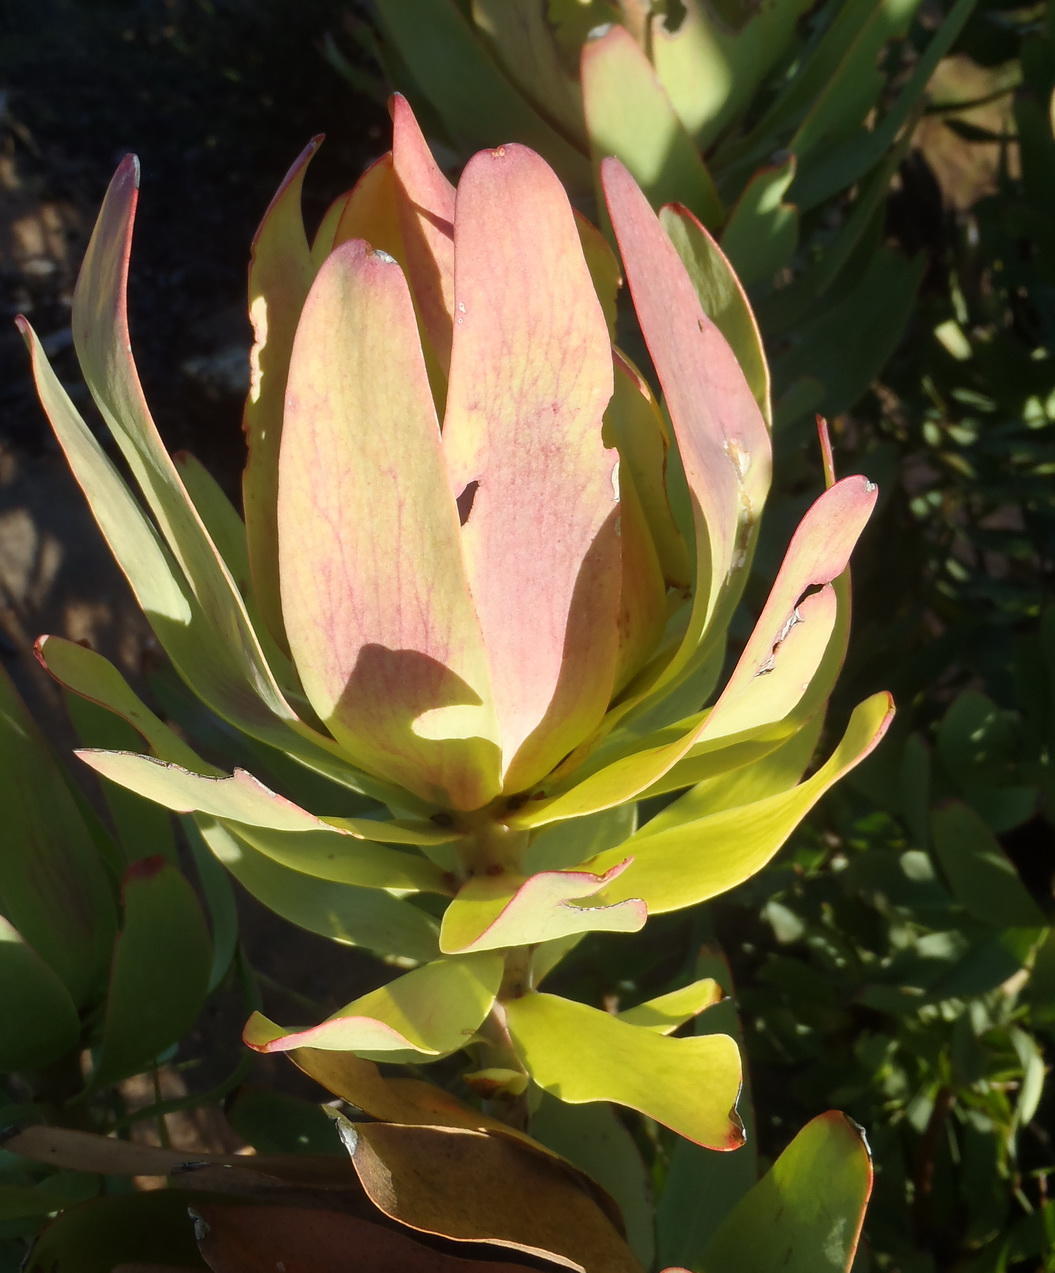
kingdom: Plantae
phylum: Tracheophyta
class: Magnoliopsida
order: Proteales
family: Proteaceae
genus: Leucadendron
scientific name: Leucadendron tinctum
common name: Spicy conebush
